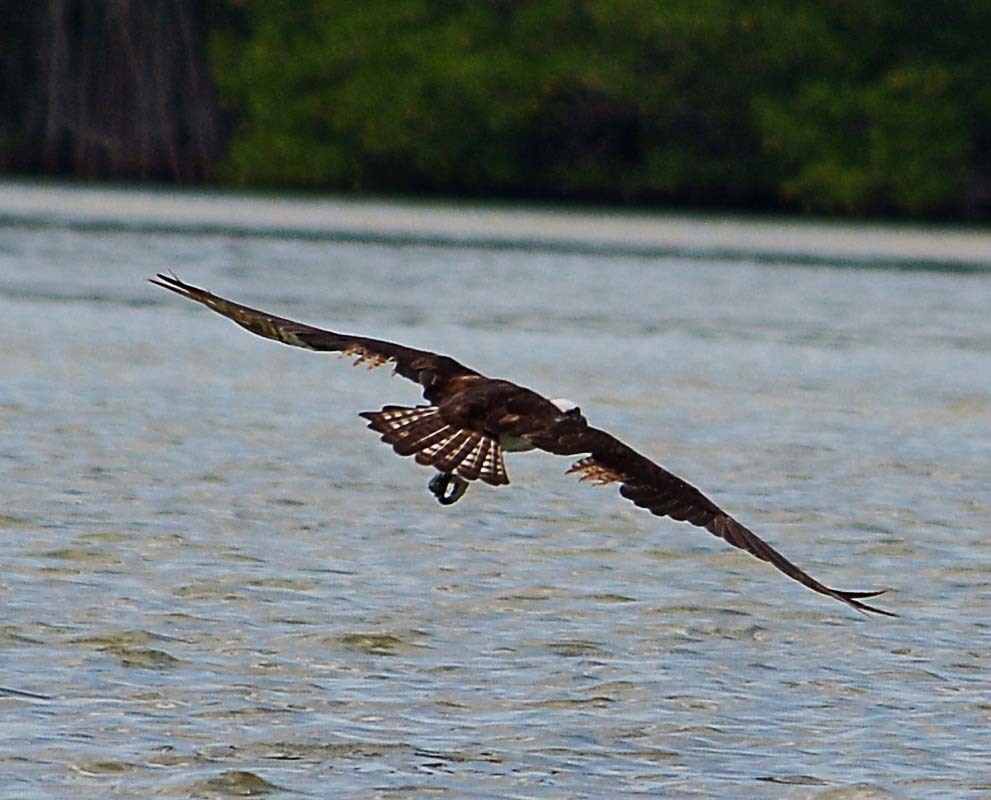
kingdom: Animalia
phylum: Chordata
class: Aves
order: Accipitriformes
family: Pandionidae
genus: Pandion
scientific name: Pandion haliaetus
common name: Osprey
